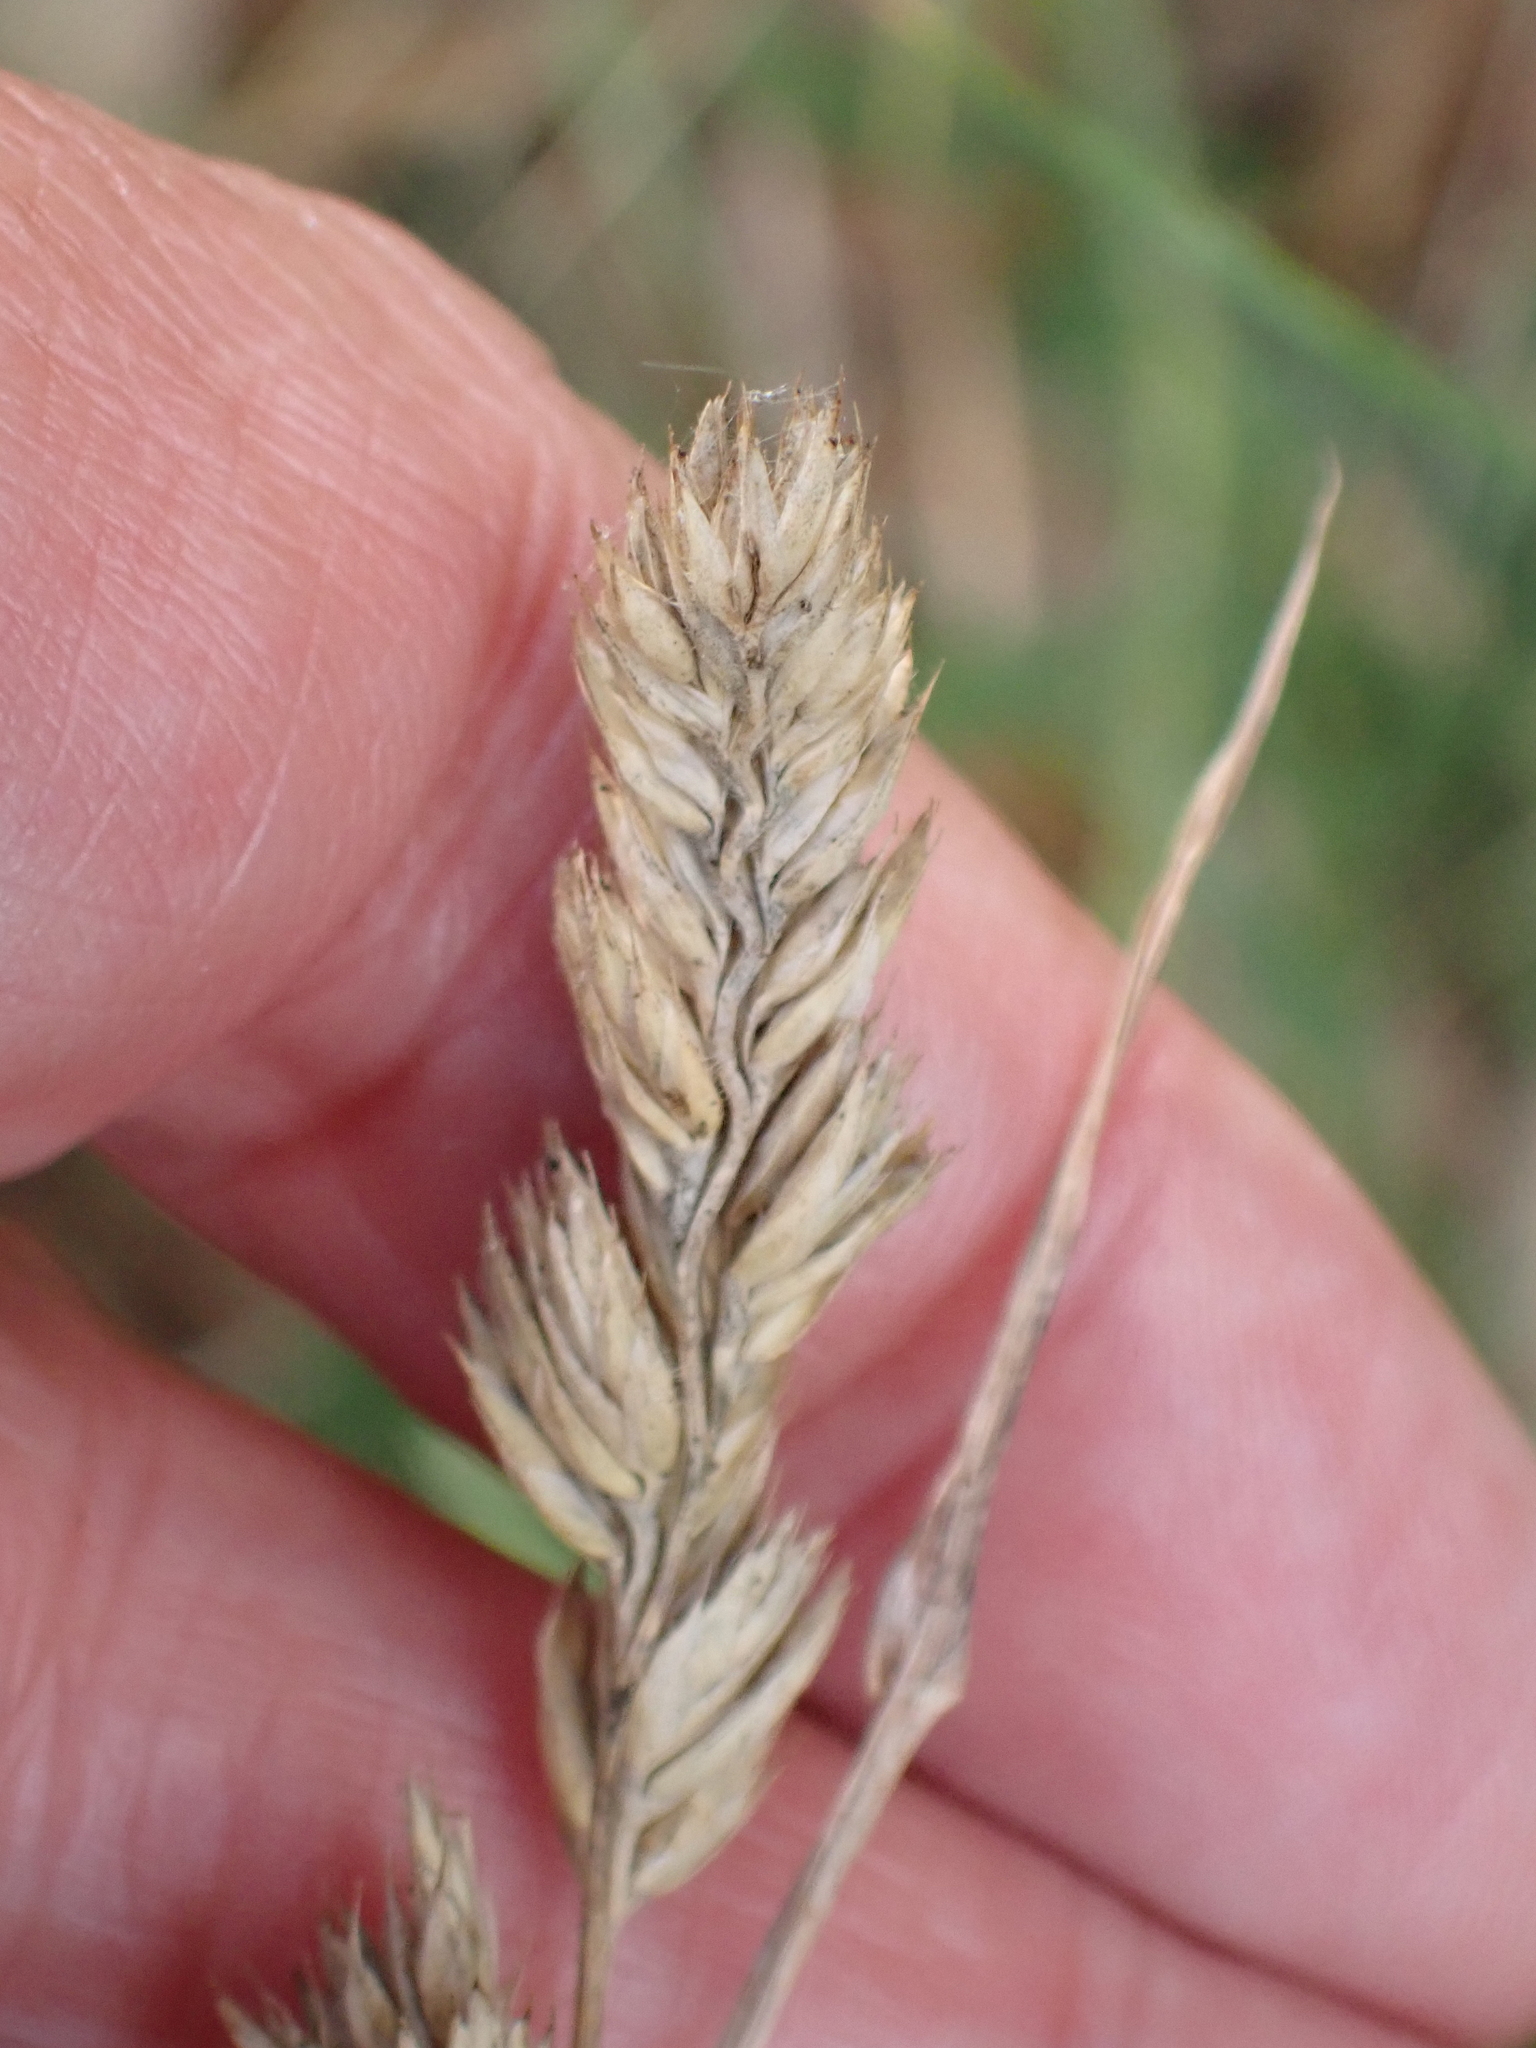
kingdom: Plantae
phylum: Tracheophyta
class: Liliopsida
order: Poales
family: Poaceae
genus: Dactylis
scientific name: Dactylis glomerata
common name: Orchardgrass
